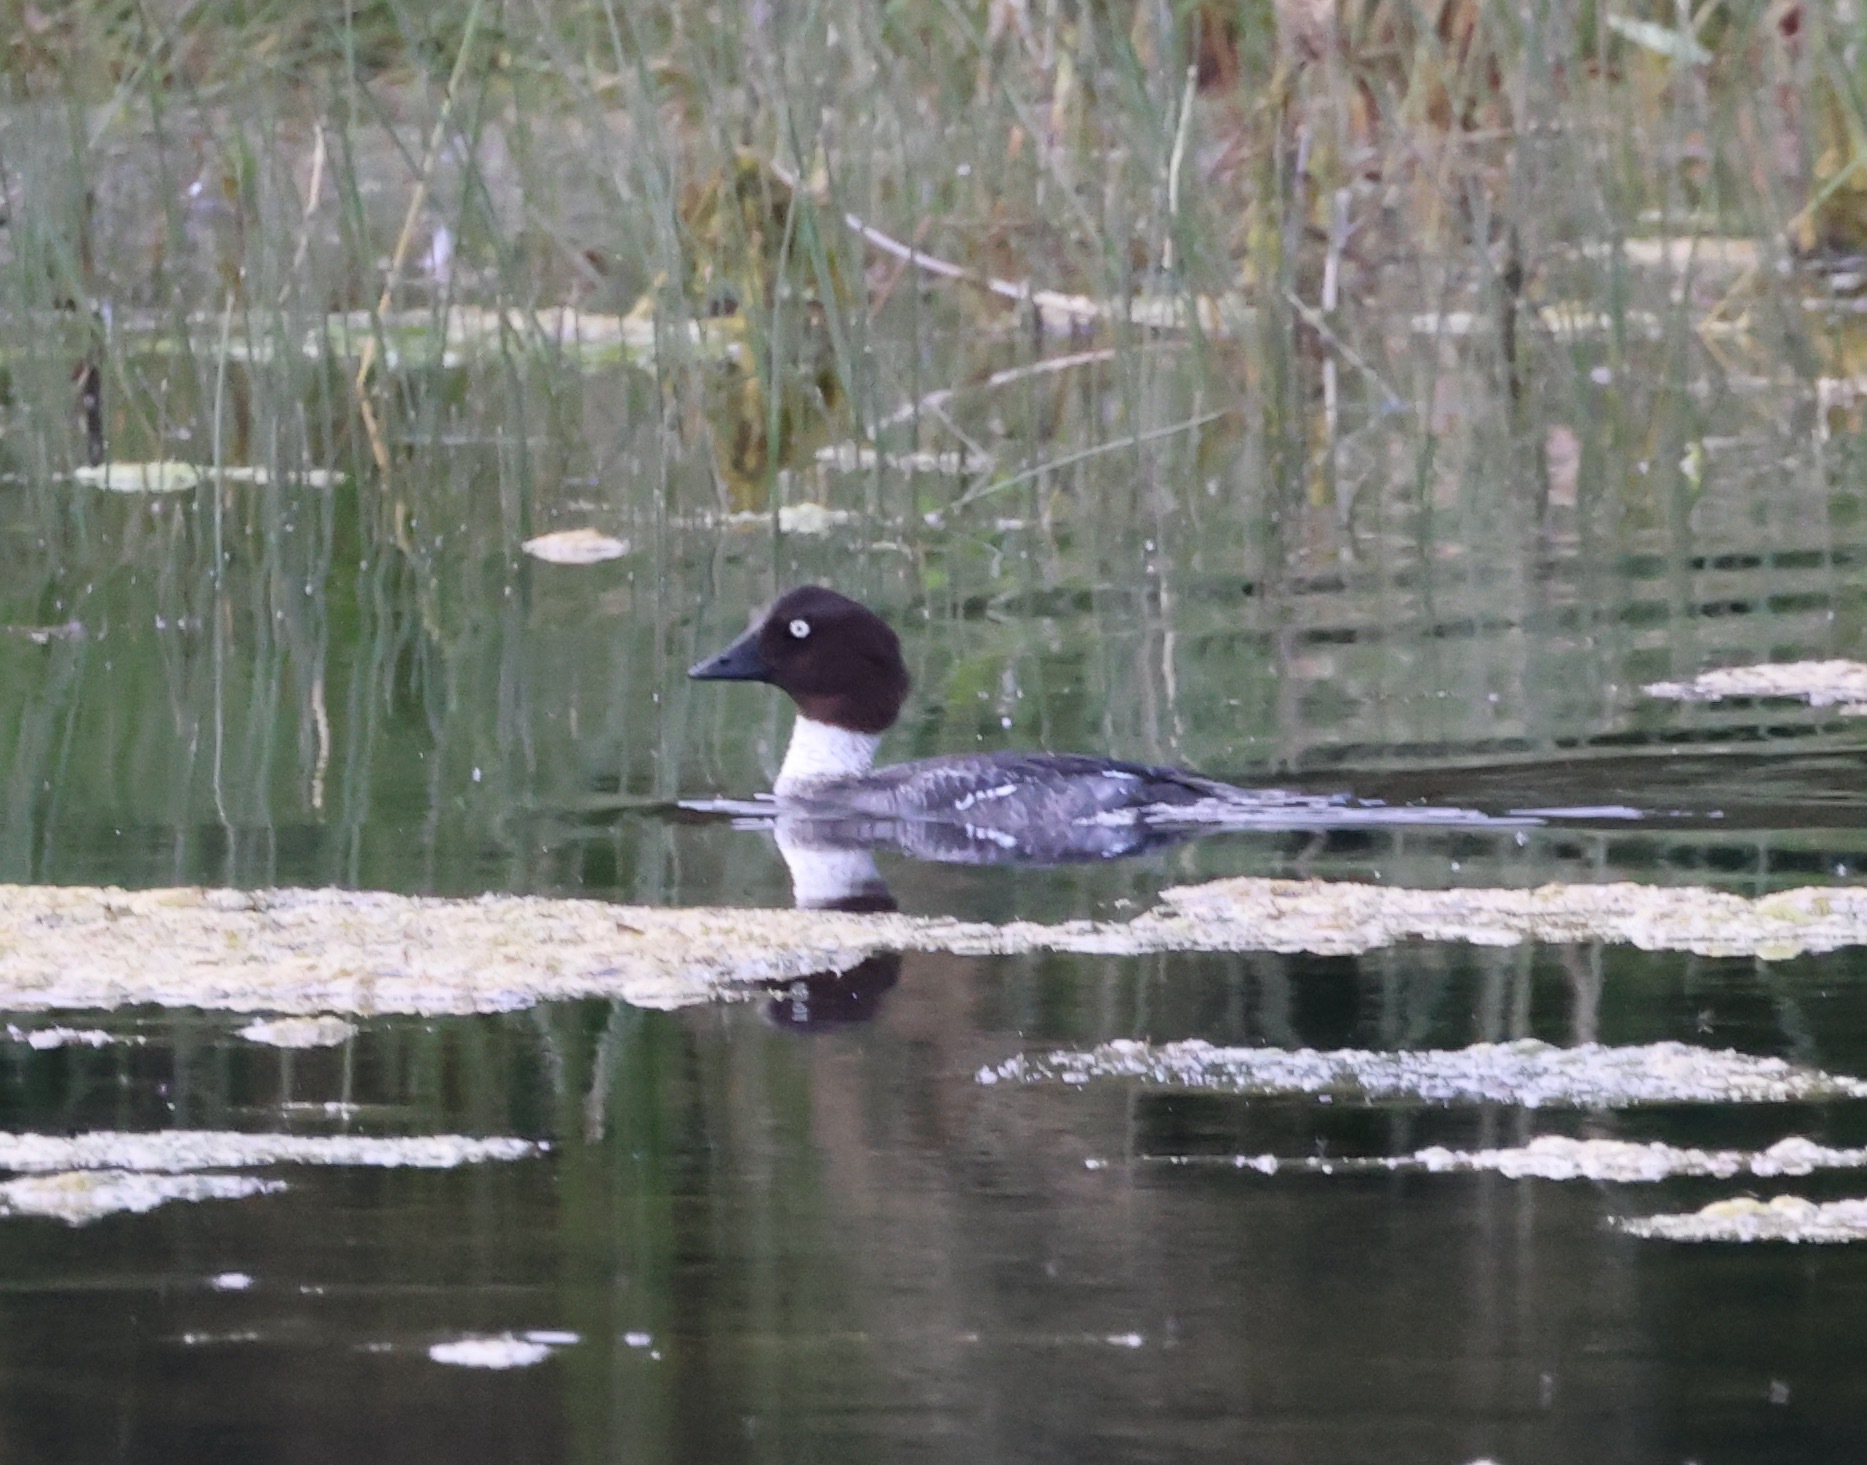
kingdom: Animalia
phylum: Chordata
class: Aves
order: Anseriformes
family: Anatidae
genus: Bucephala
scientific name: Bucephala clangula
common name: Common goldeneye
